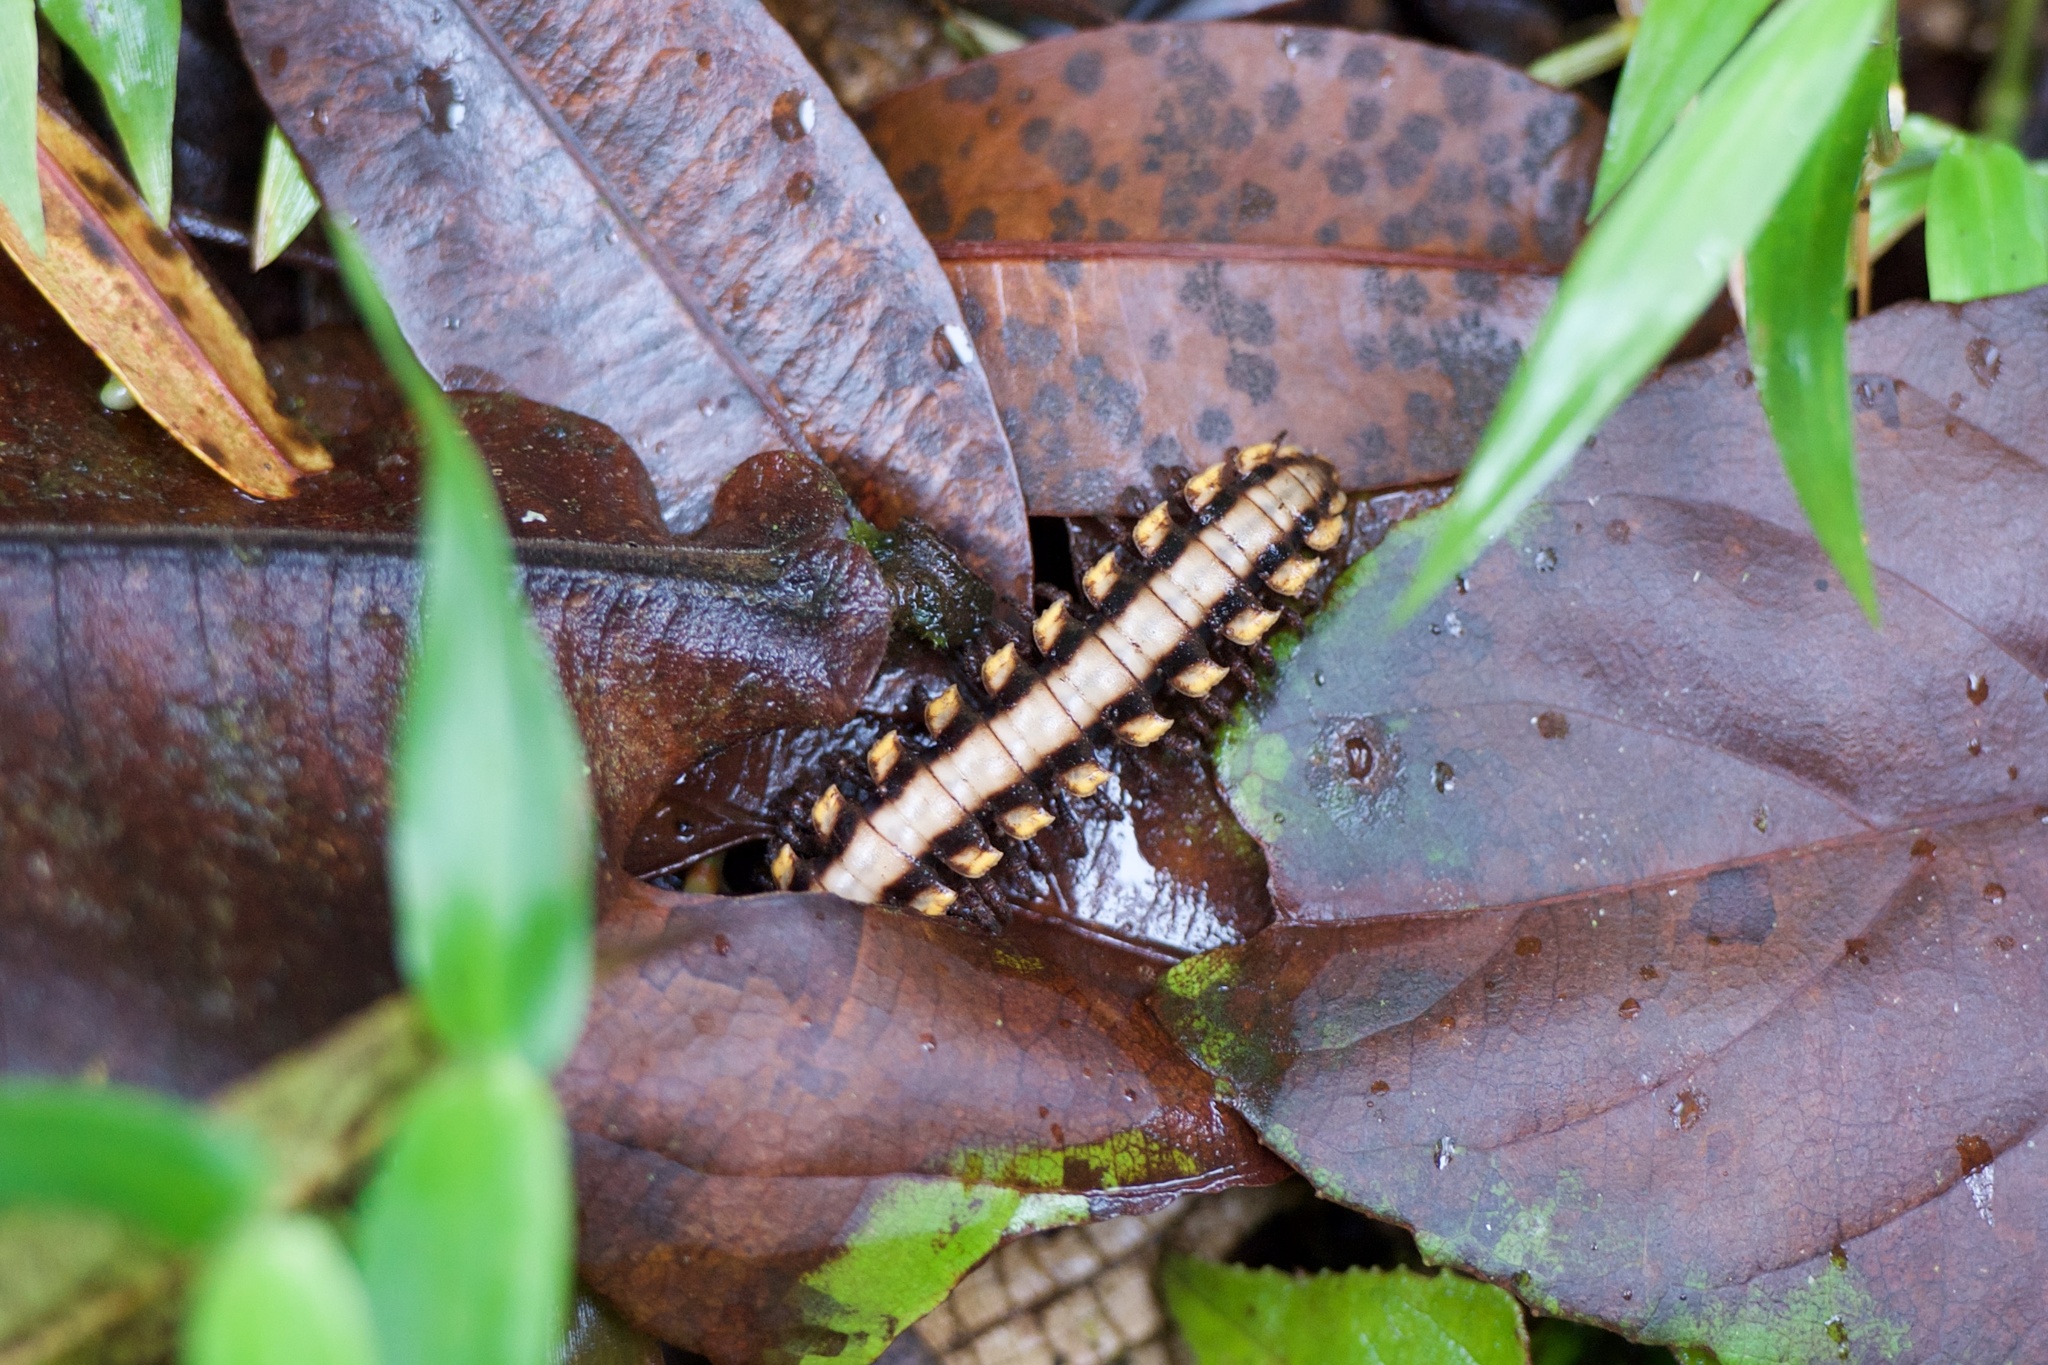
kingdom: Animalia
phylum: Arthropoda
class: Diplopoda
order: Polydesmida
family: Platyrhacidae
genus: Nyssodesmus
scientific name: Nyssodesmus python
